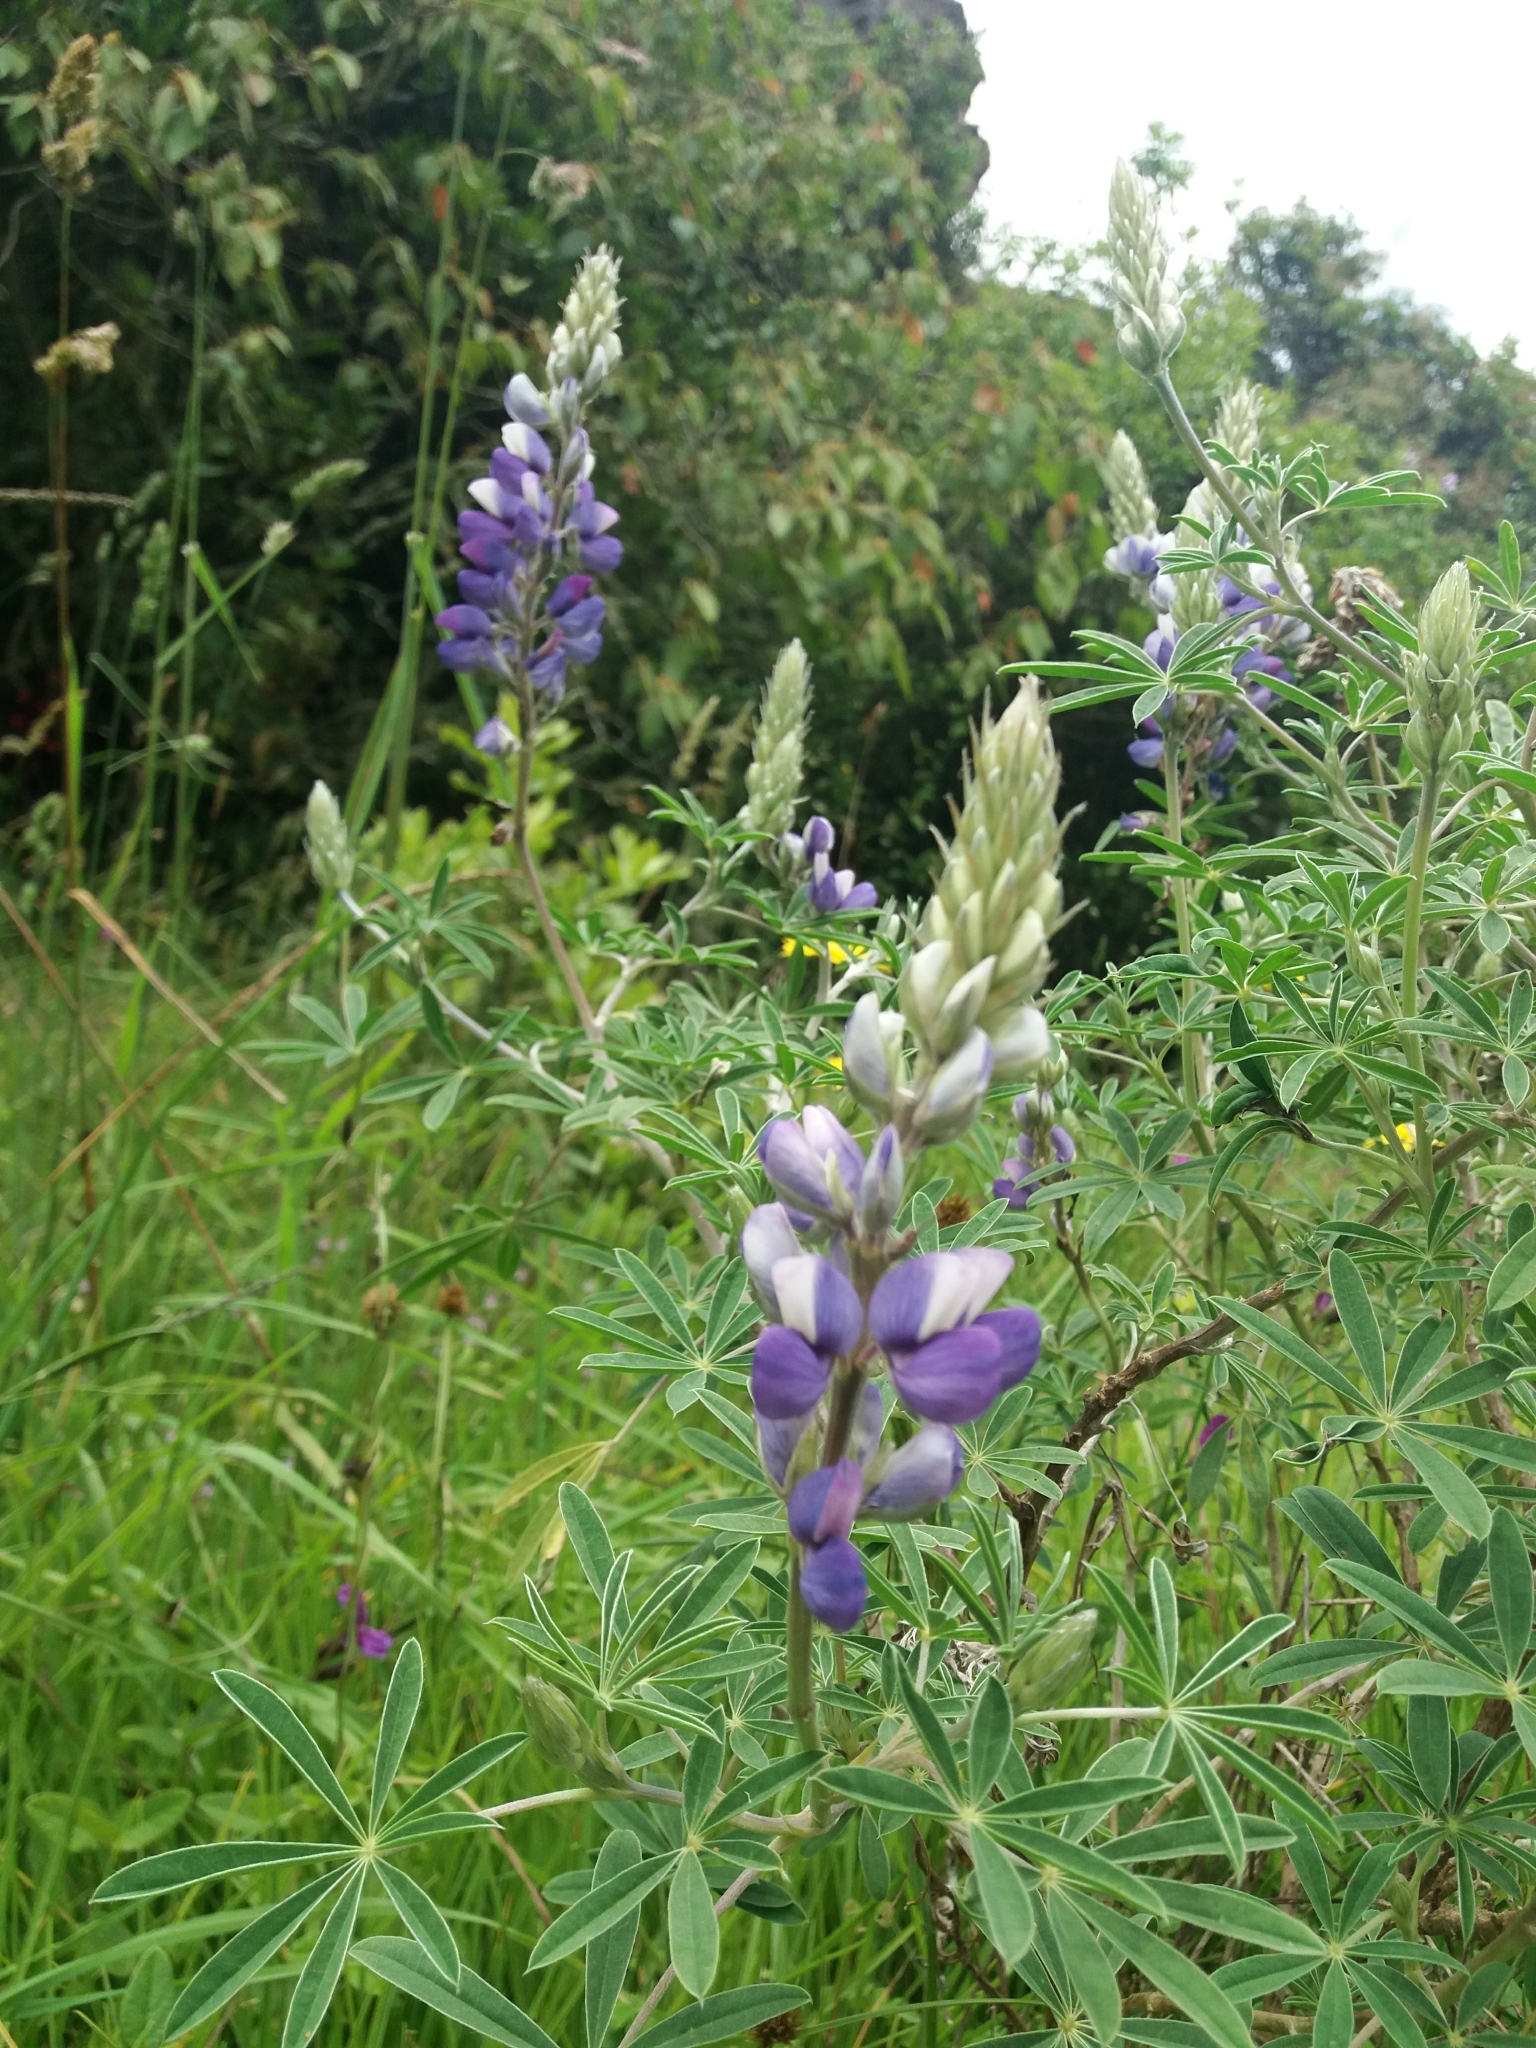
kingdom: Plantae
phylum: Tracheophyta
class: Magnoliopsida
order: Fabales
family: Fabaceae
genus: Lupinus
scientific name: Lupinus bogotensis
